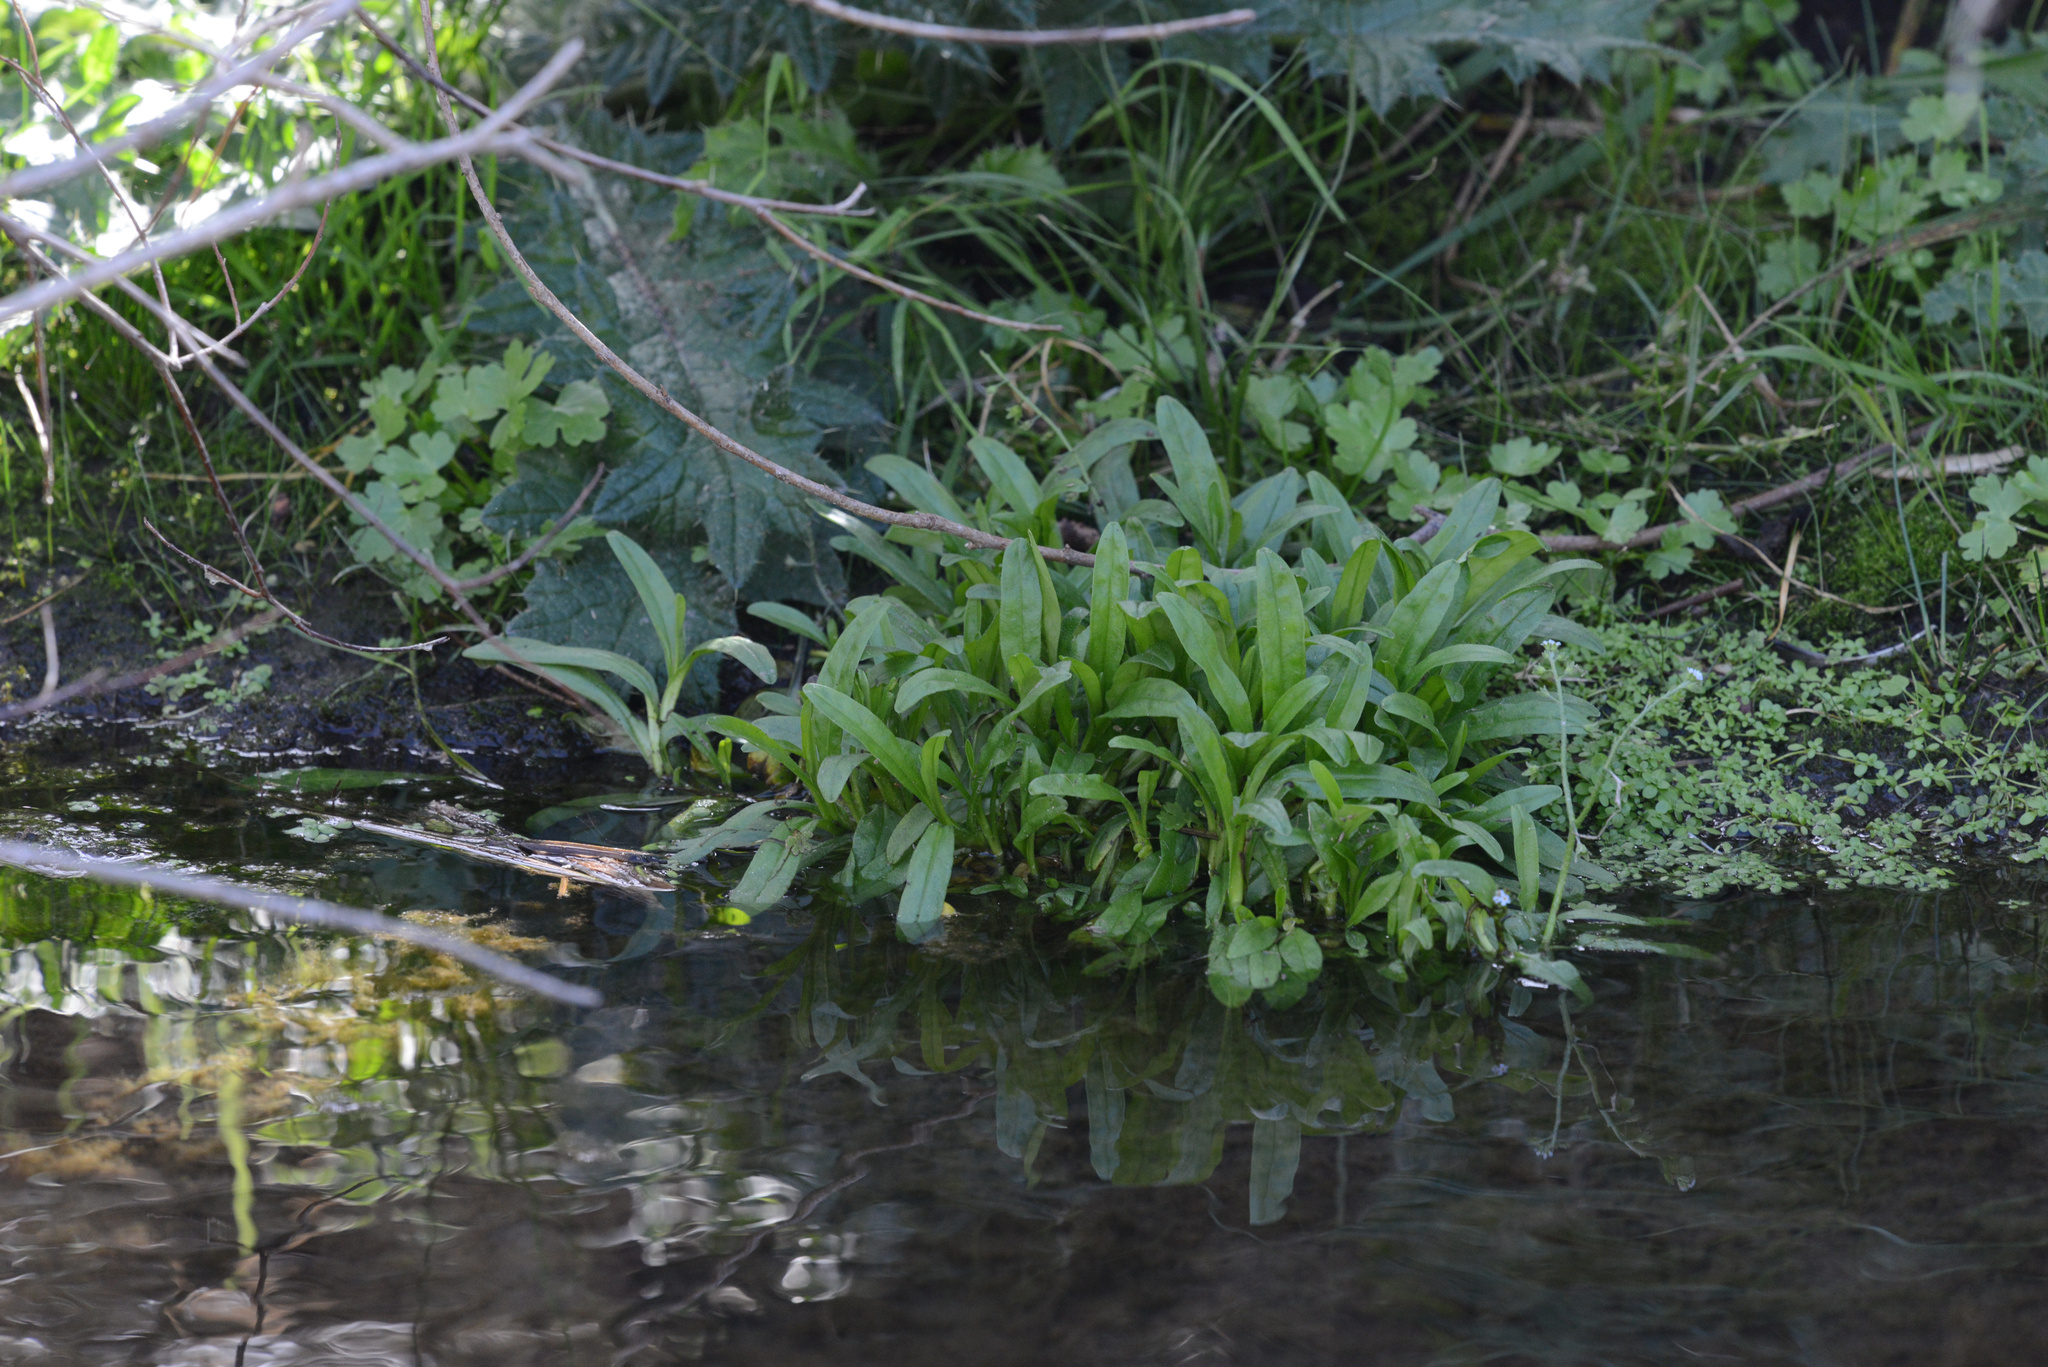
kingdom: Plantae
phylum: Tracheophyta
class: Magnoliopsida
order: Boraginales
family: Boraginaceae
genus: Myosotis
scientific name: Myosotis sylvatica
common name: Wood forget-me-not
